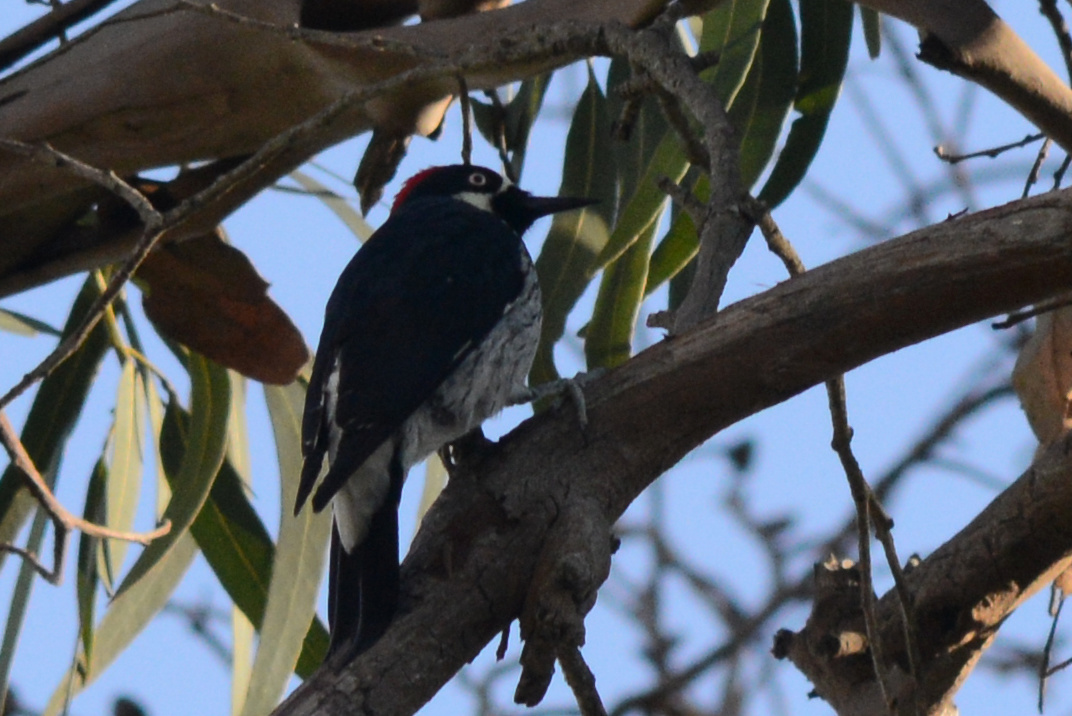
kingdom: Animalia
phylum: Chordata
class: Aves
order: Piciformes
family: Picidae
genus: Melanerpes
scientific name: Melanerpes formicivorus
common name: Acorn woodpecker
